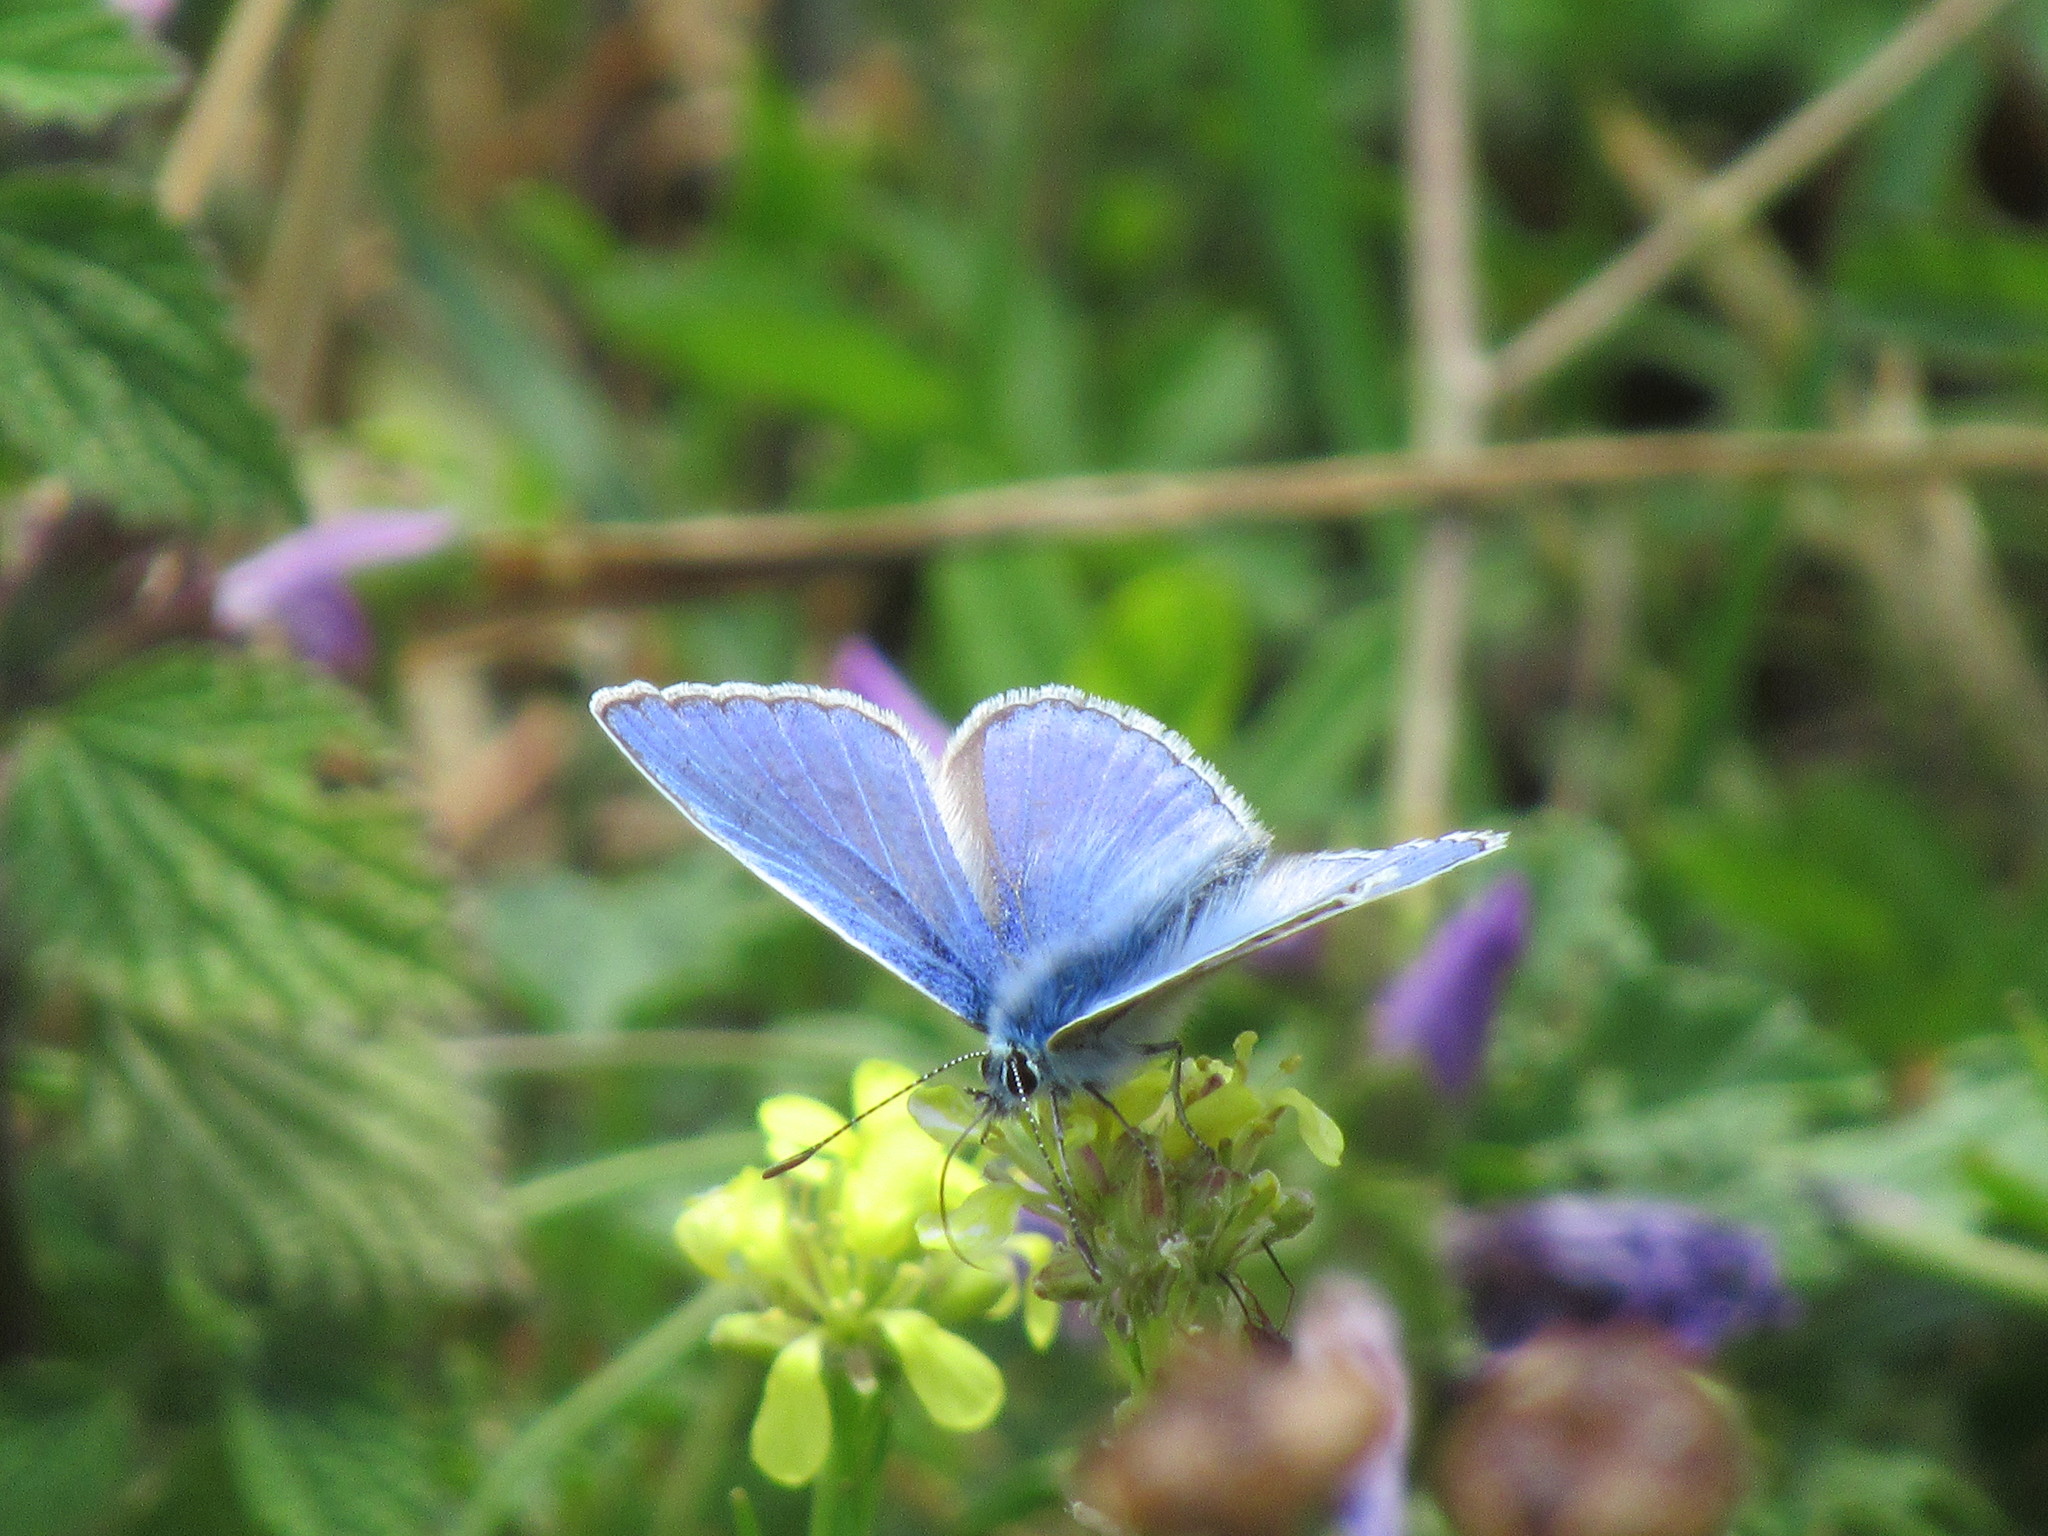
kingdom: Animalia
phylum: Arthropoda
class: Insecta
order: Lepidoptera
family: Lycaenidae
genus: Polyommatus
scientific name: Polyommatus icarus
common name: Common blue
